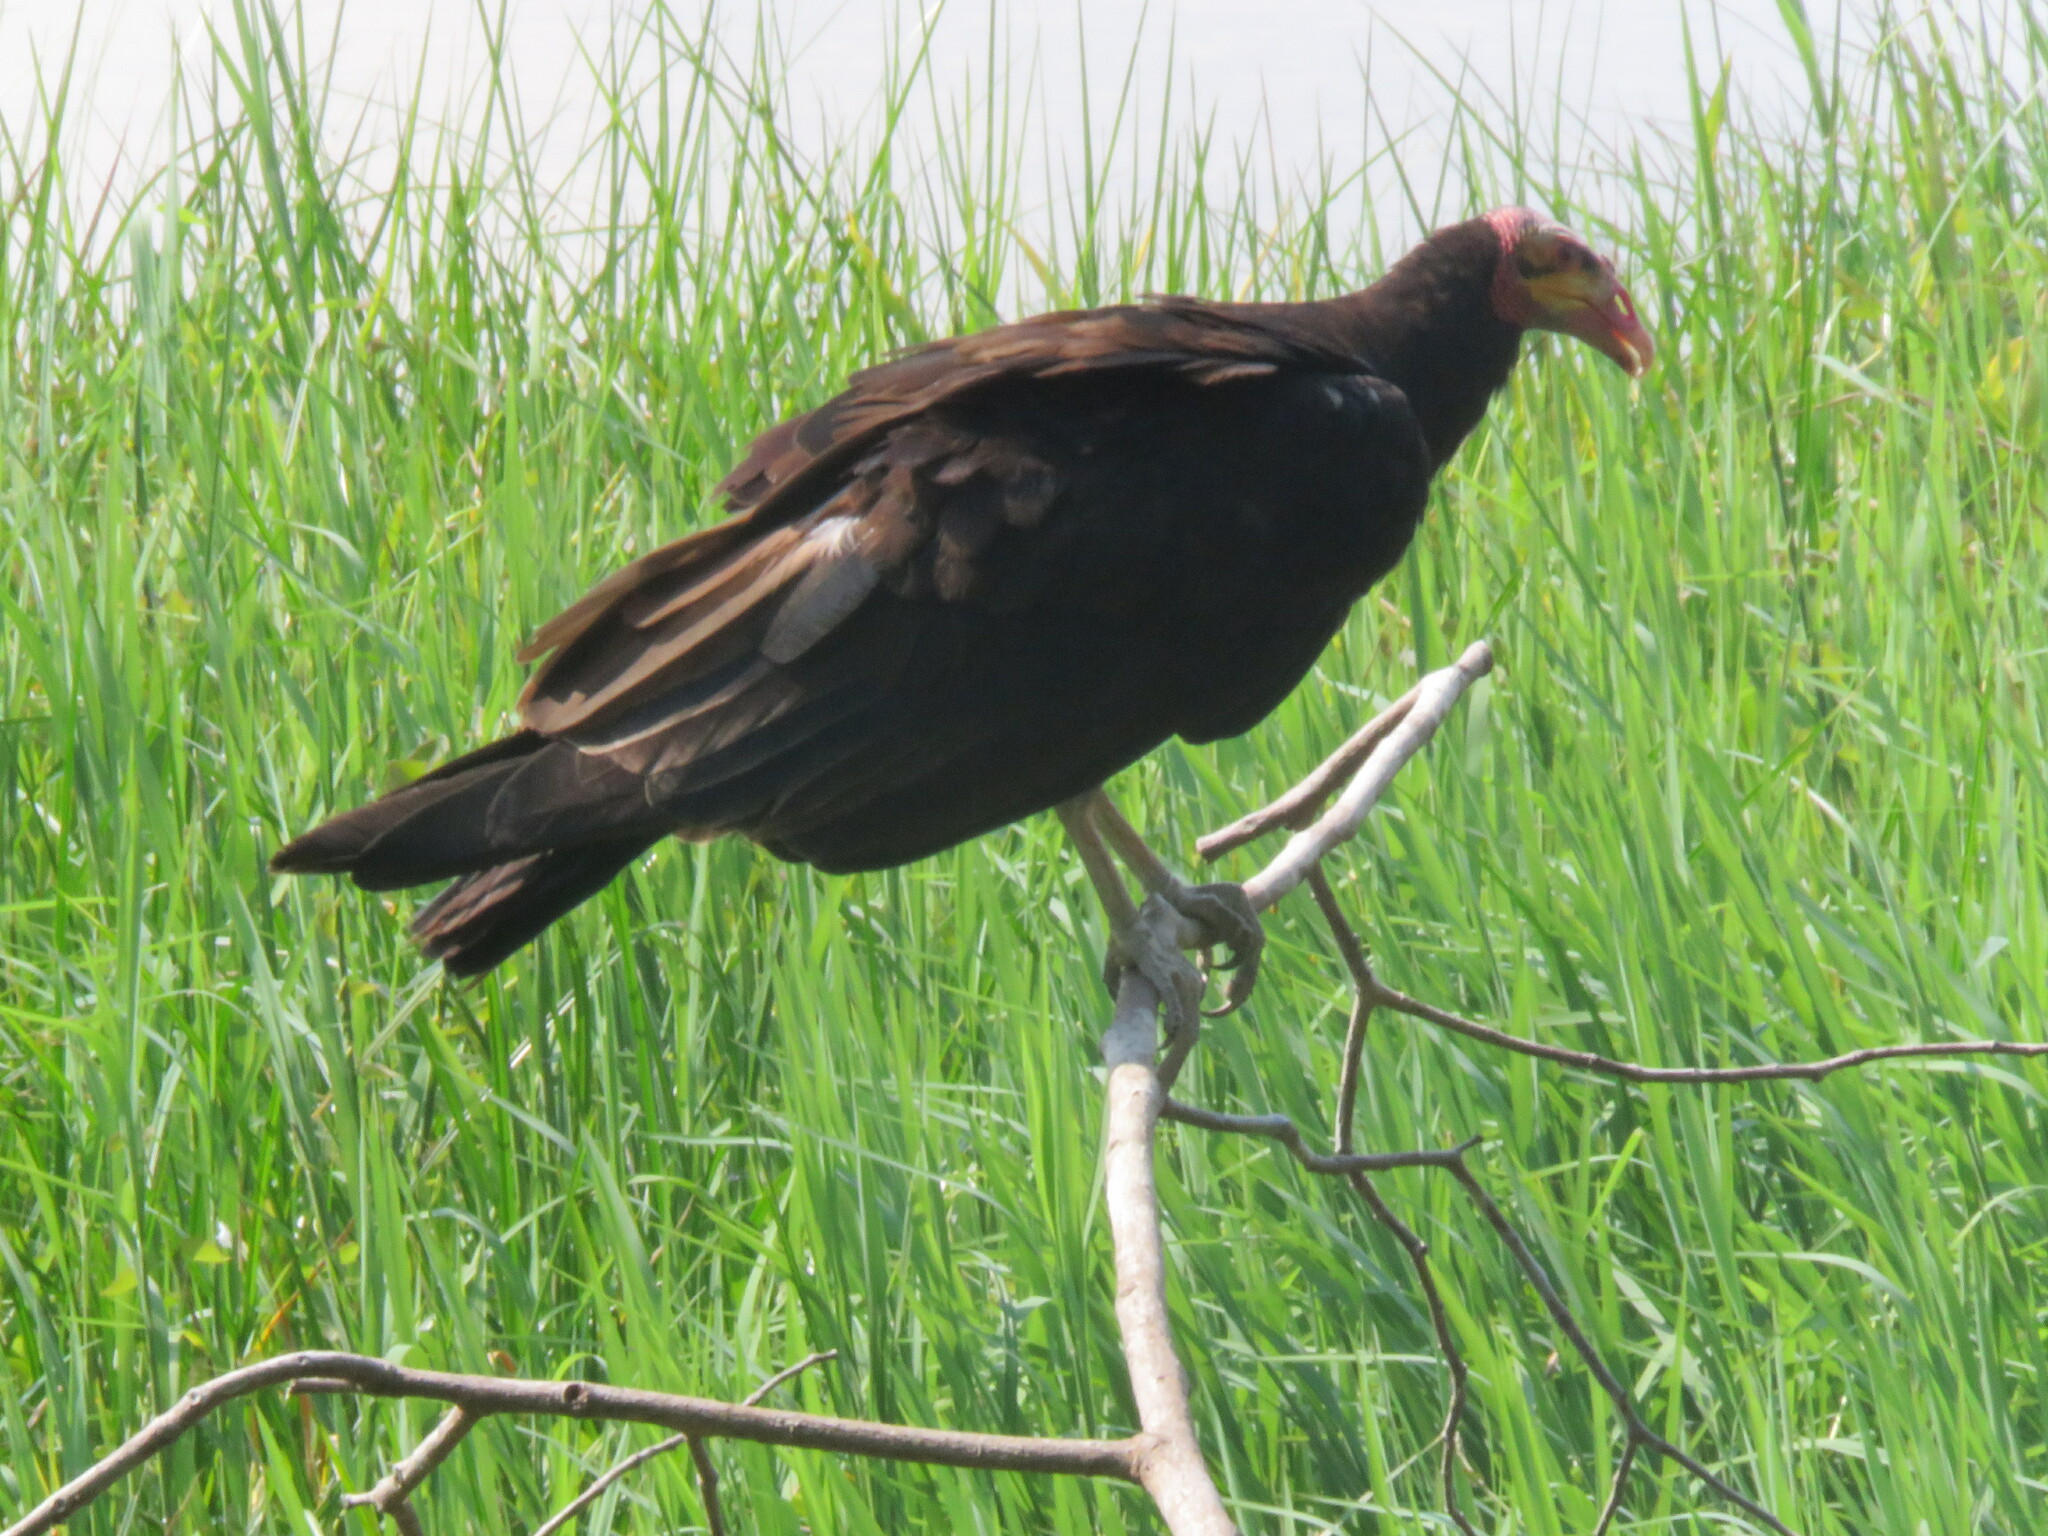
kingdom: Animalia
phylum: Chordata
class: Aves
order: Accipitriformes
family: Cathartidae
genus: Cathartes
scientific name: Cathartes burrovianus
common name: Lesser yellow-headed vulture
